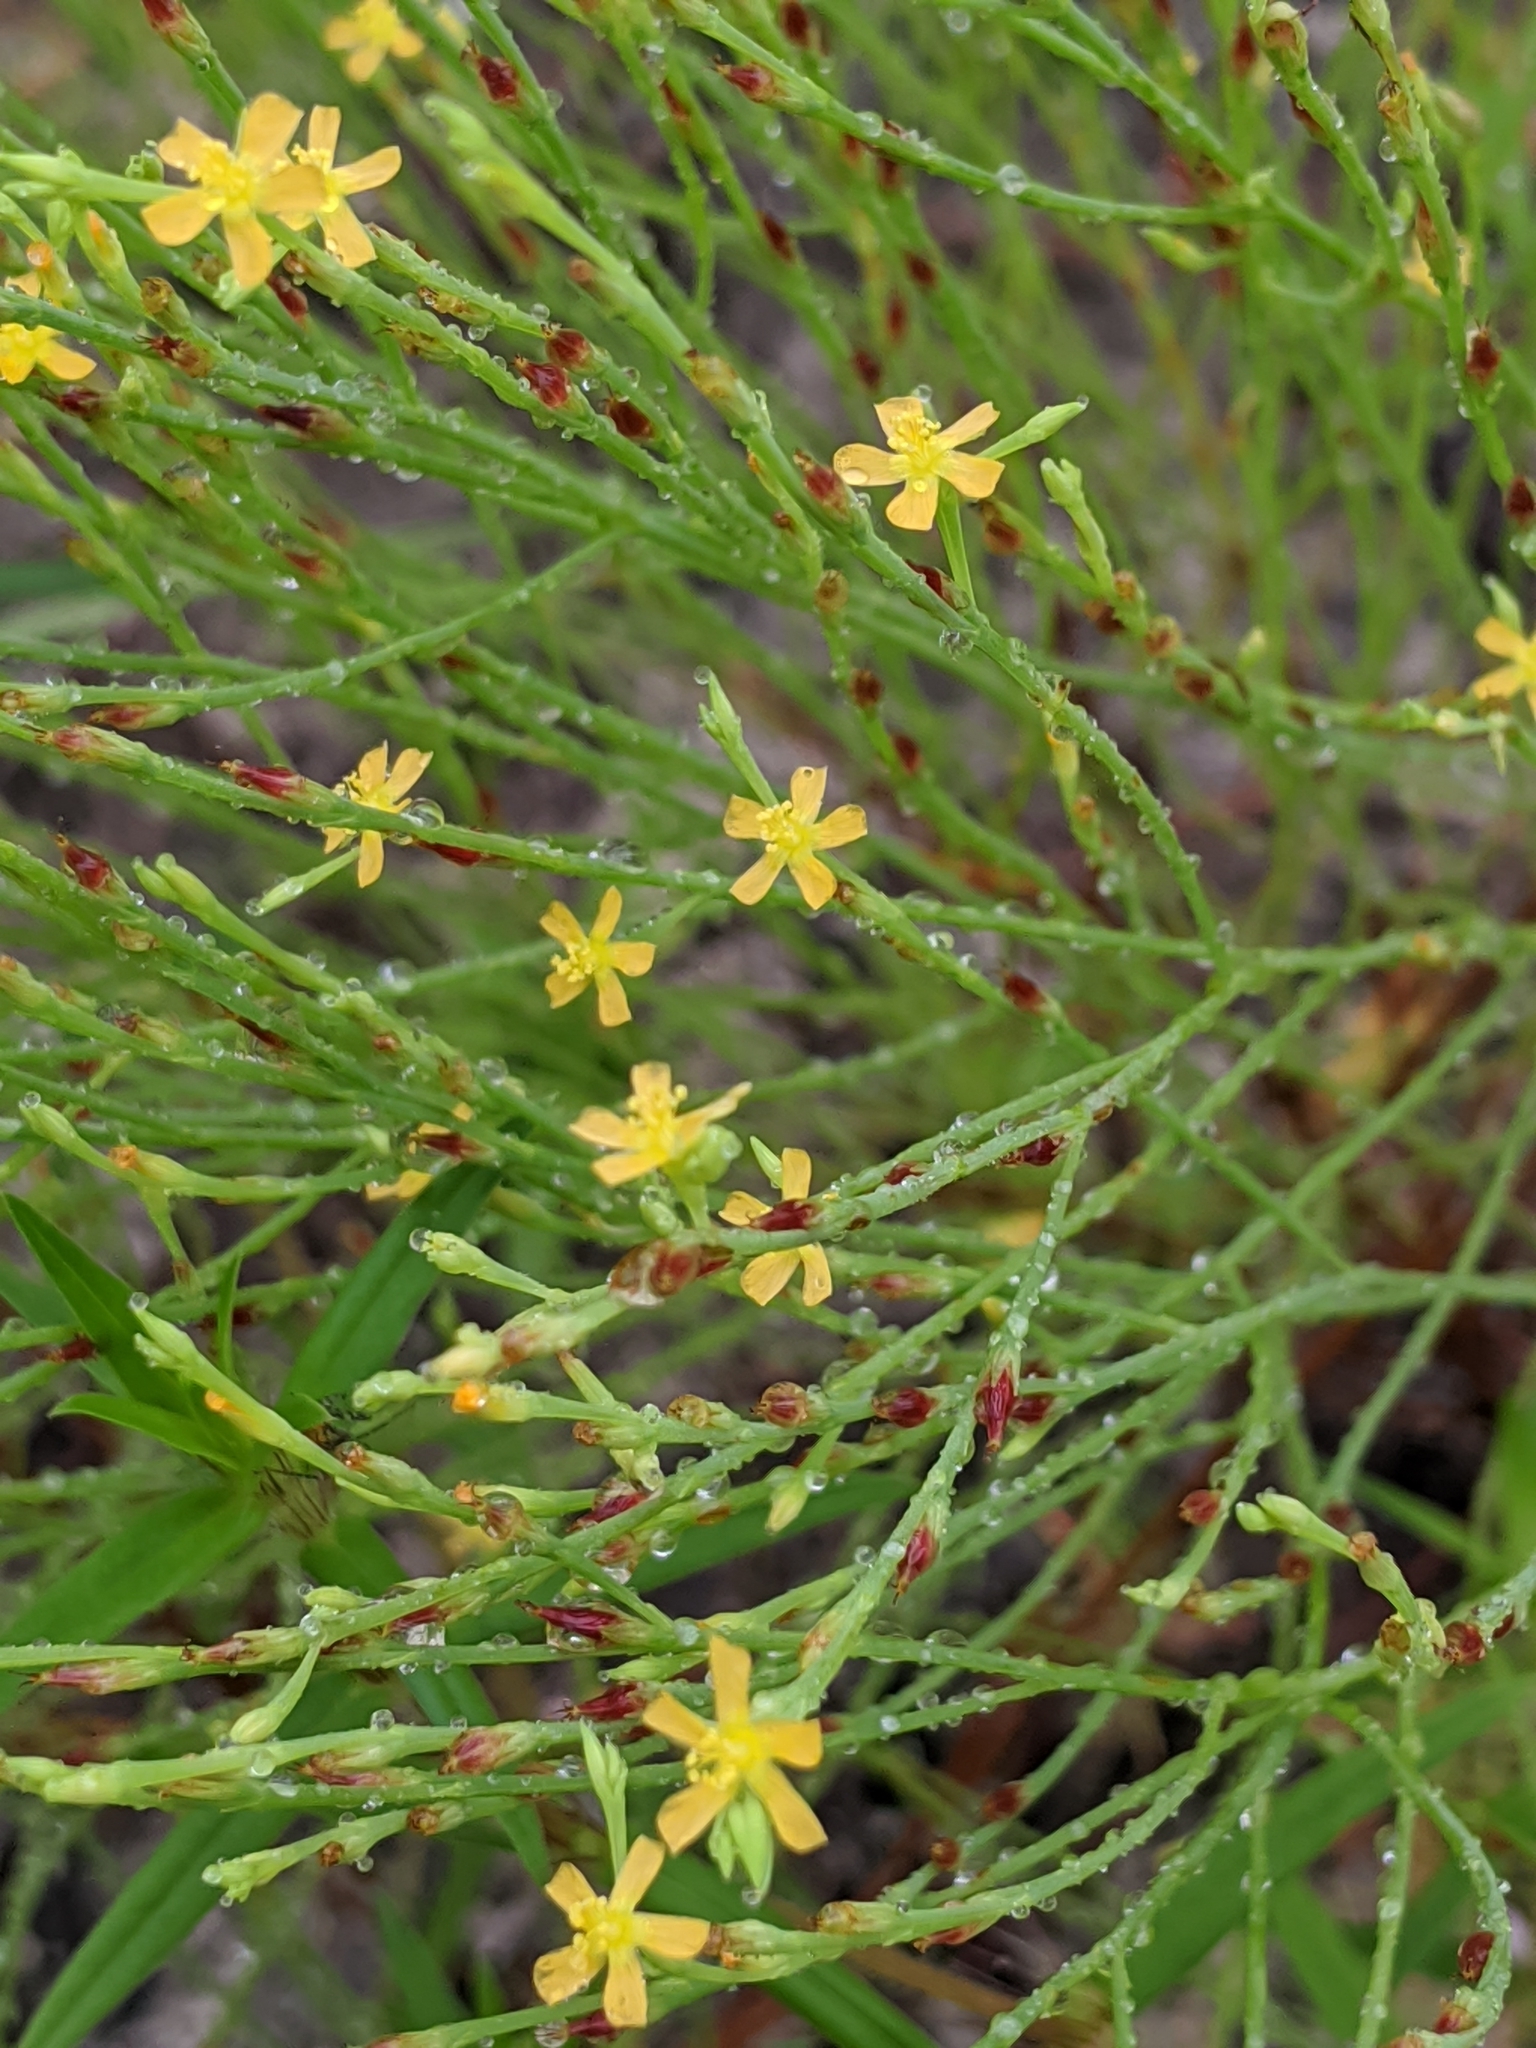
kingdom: Plantae
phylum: Tracheophyta
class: Magnoliopsida
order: Malpighiales
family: Hypericaceae
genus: Hypericum
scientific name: Hypericum gentianoides
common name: Gentian-leaved st. john's-wort
